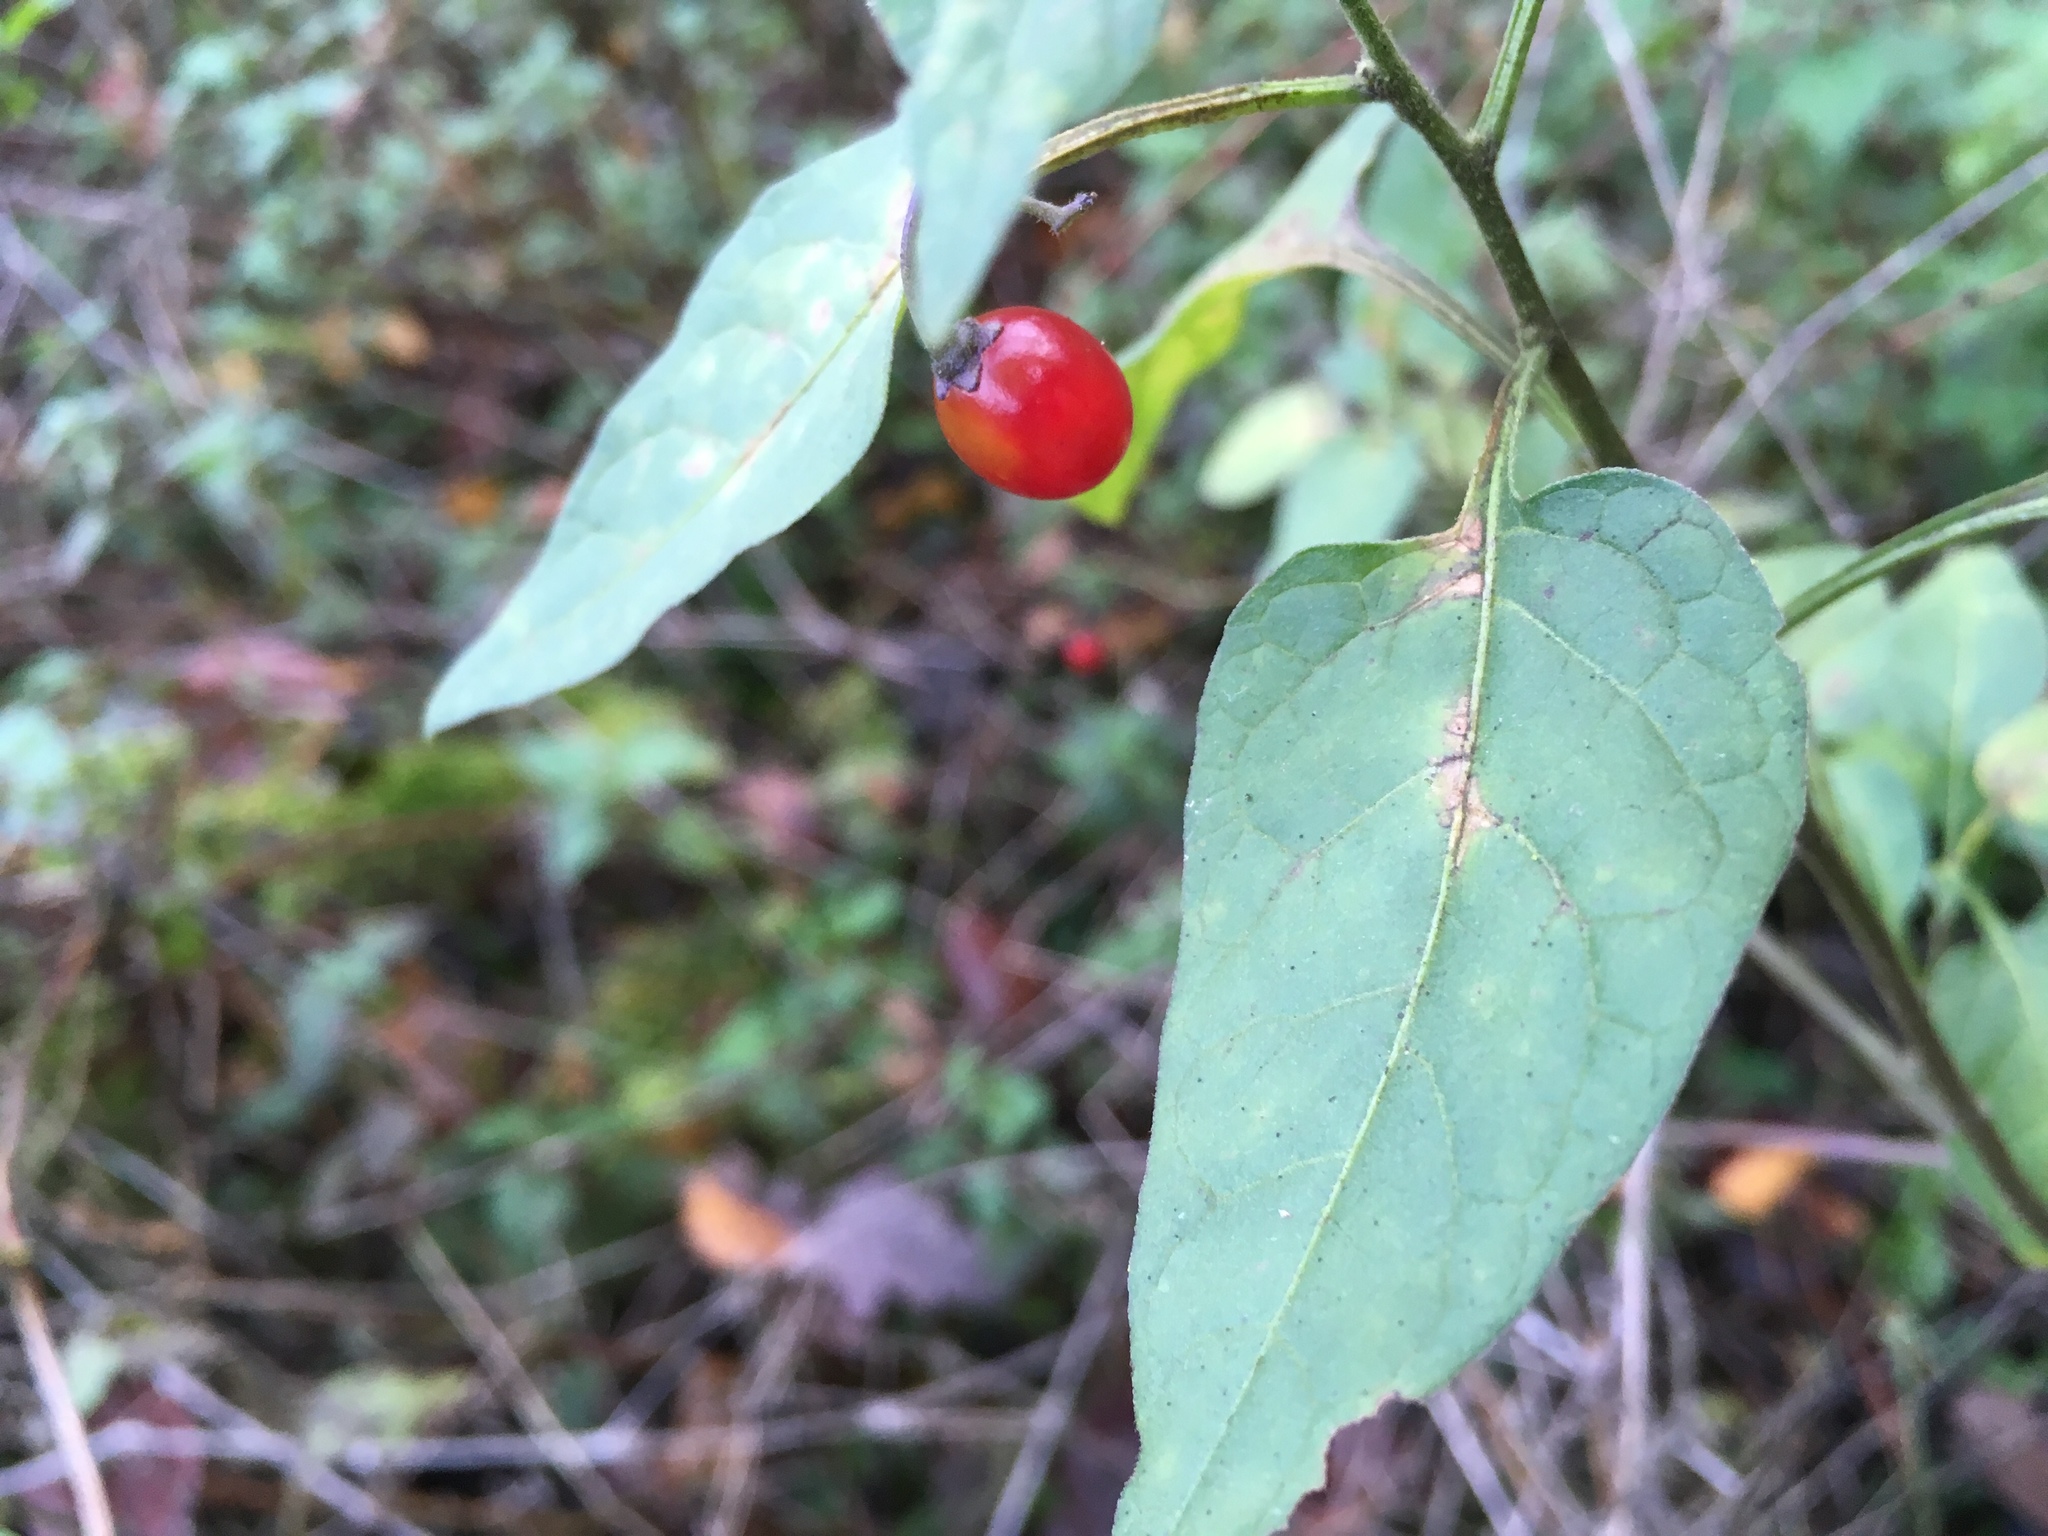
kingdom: Plantae
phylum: Tracheophyta
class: Magnoliopsida
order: Solanales
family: Solanaceae
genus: Solanum
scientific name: Solanum dulcamara
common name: Climbing nightshade
